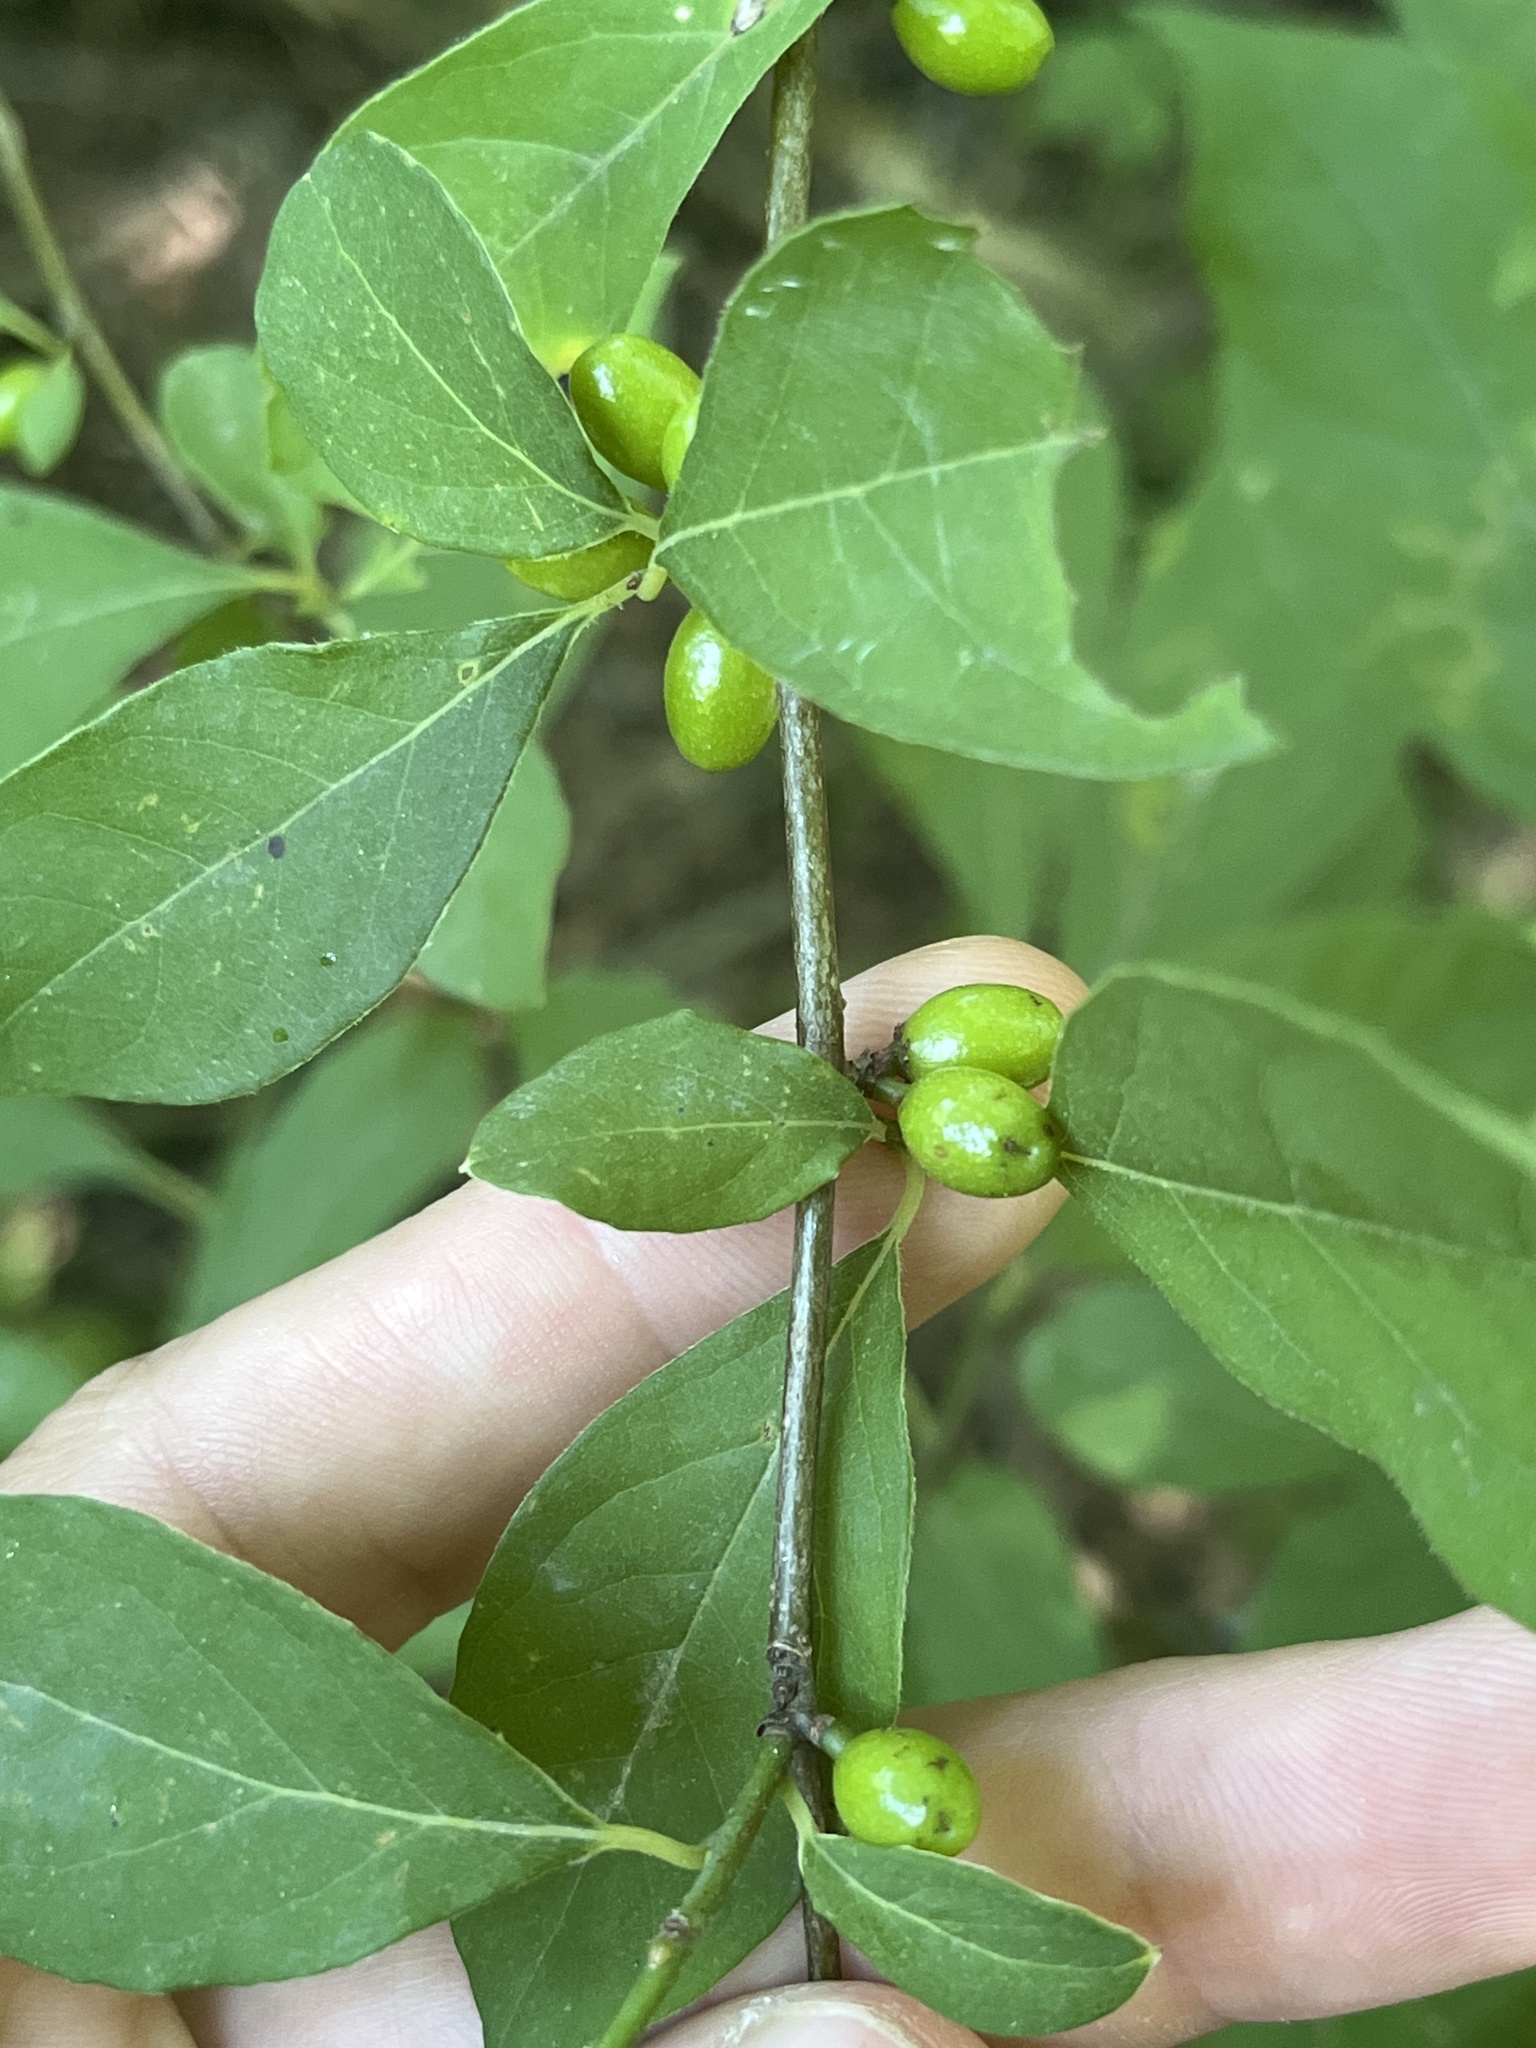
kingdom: Plantae
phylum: Tracheophyta
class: Magnoliopsida
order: Laurales
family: Lauraceae
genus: Lindera
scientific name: Lindera benzoin
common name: Spicebush
